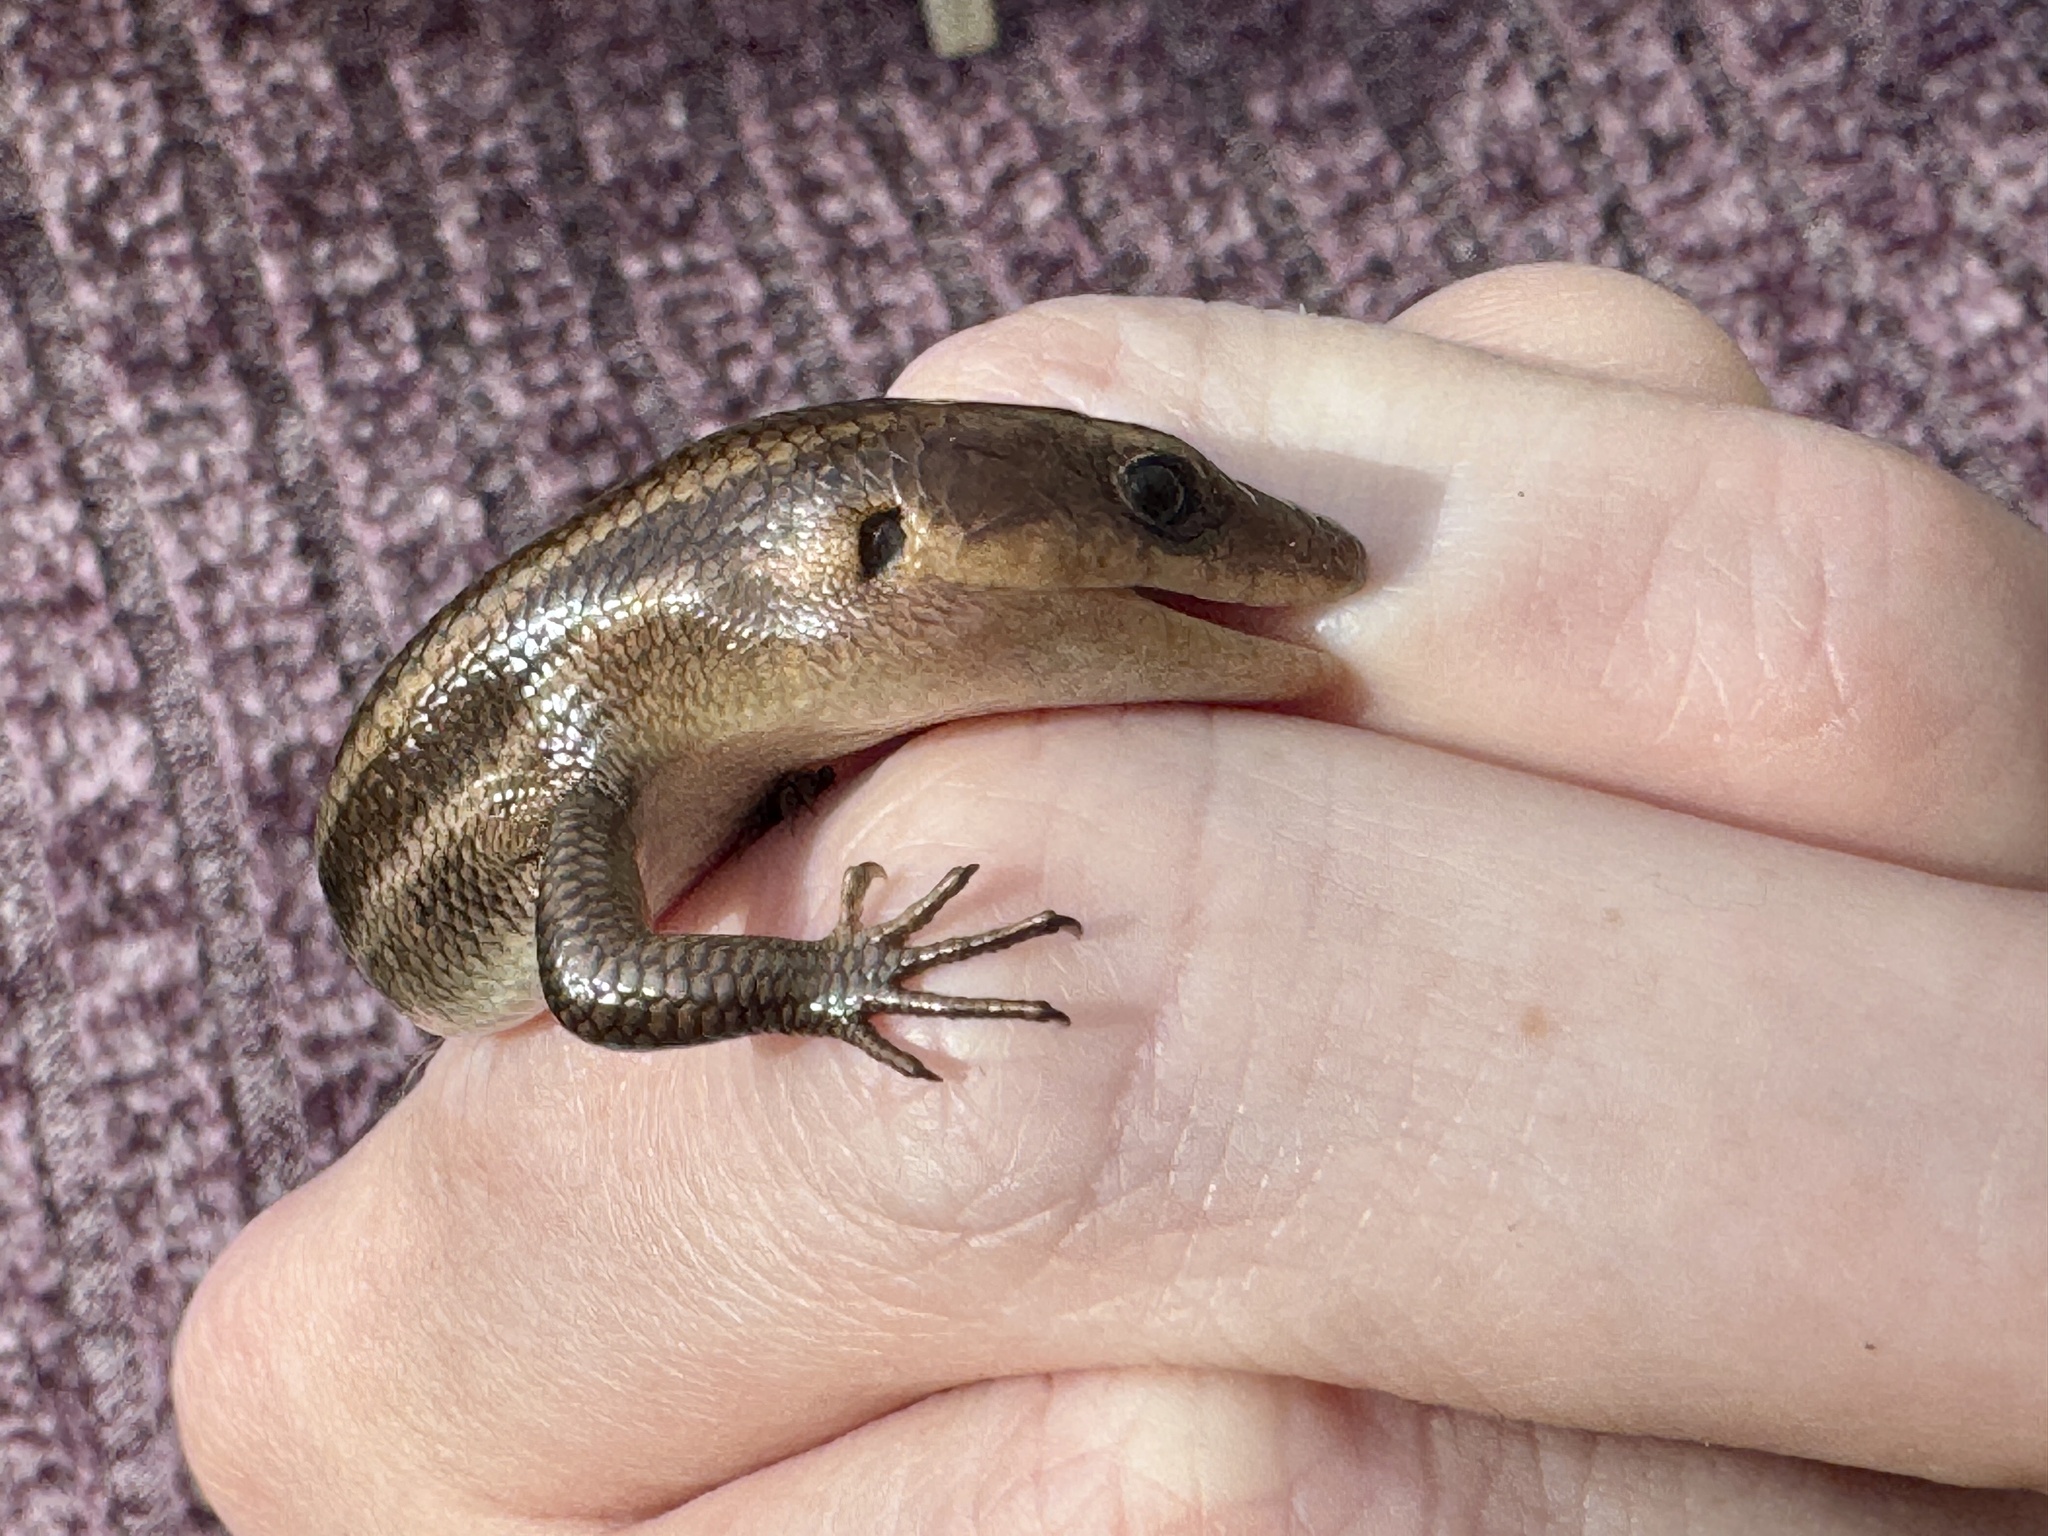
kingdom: Animalia
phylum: Chordata
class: Squamata
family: Scincidae
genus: Plestiodon
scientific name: Plestiodon fasciatus
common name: Five-lined skink
